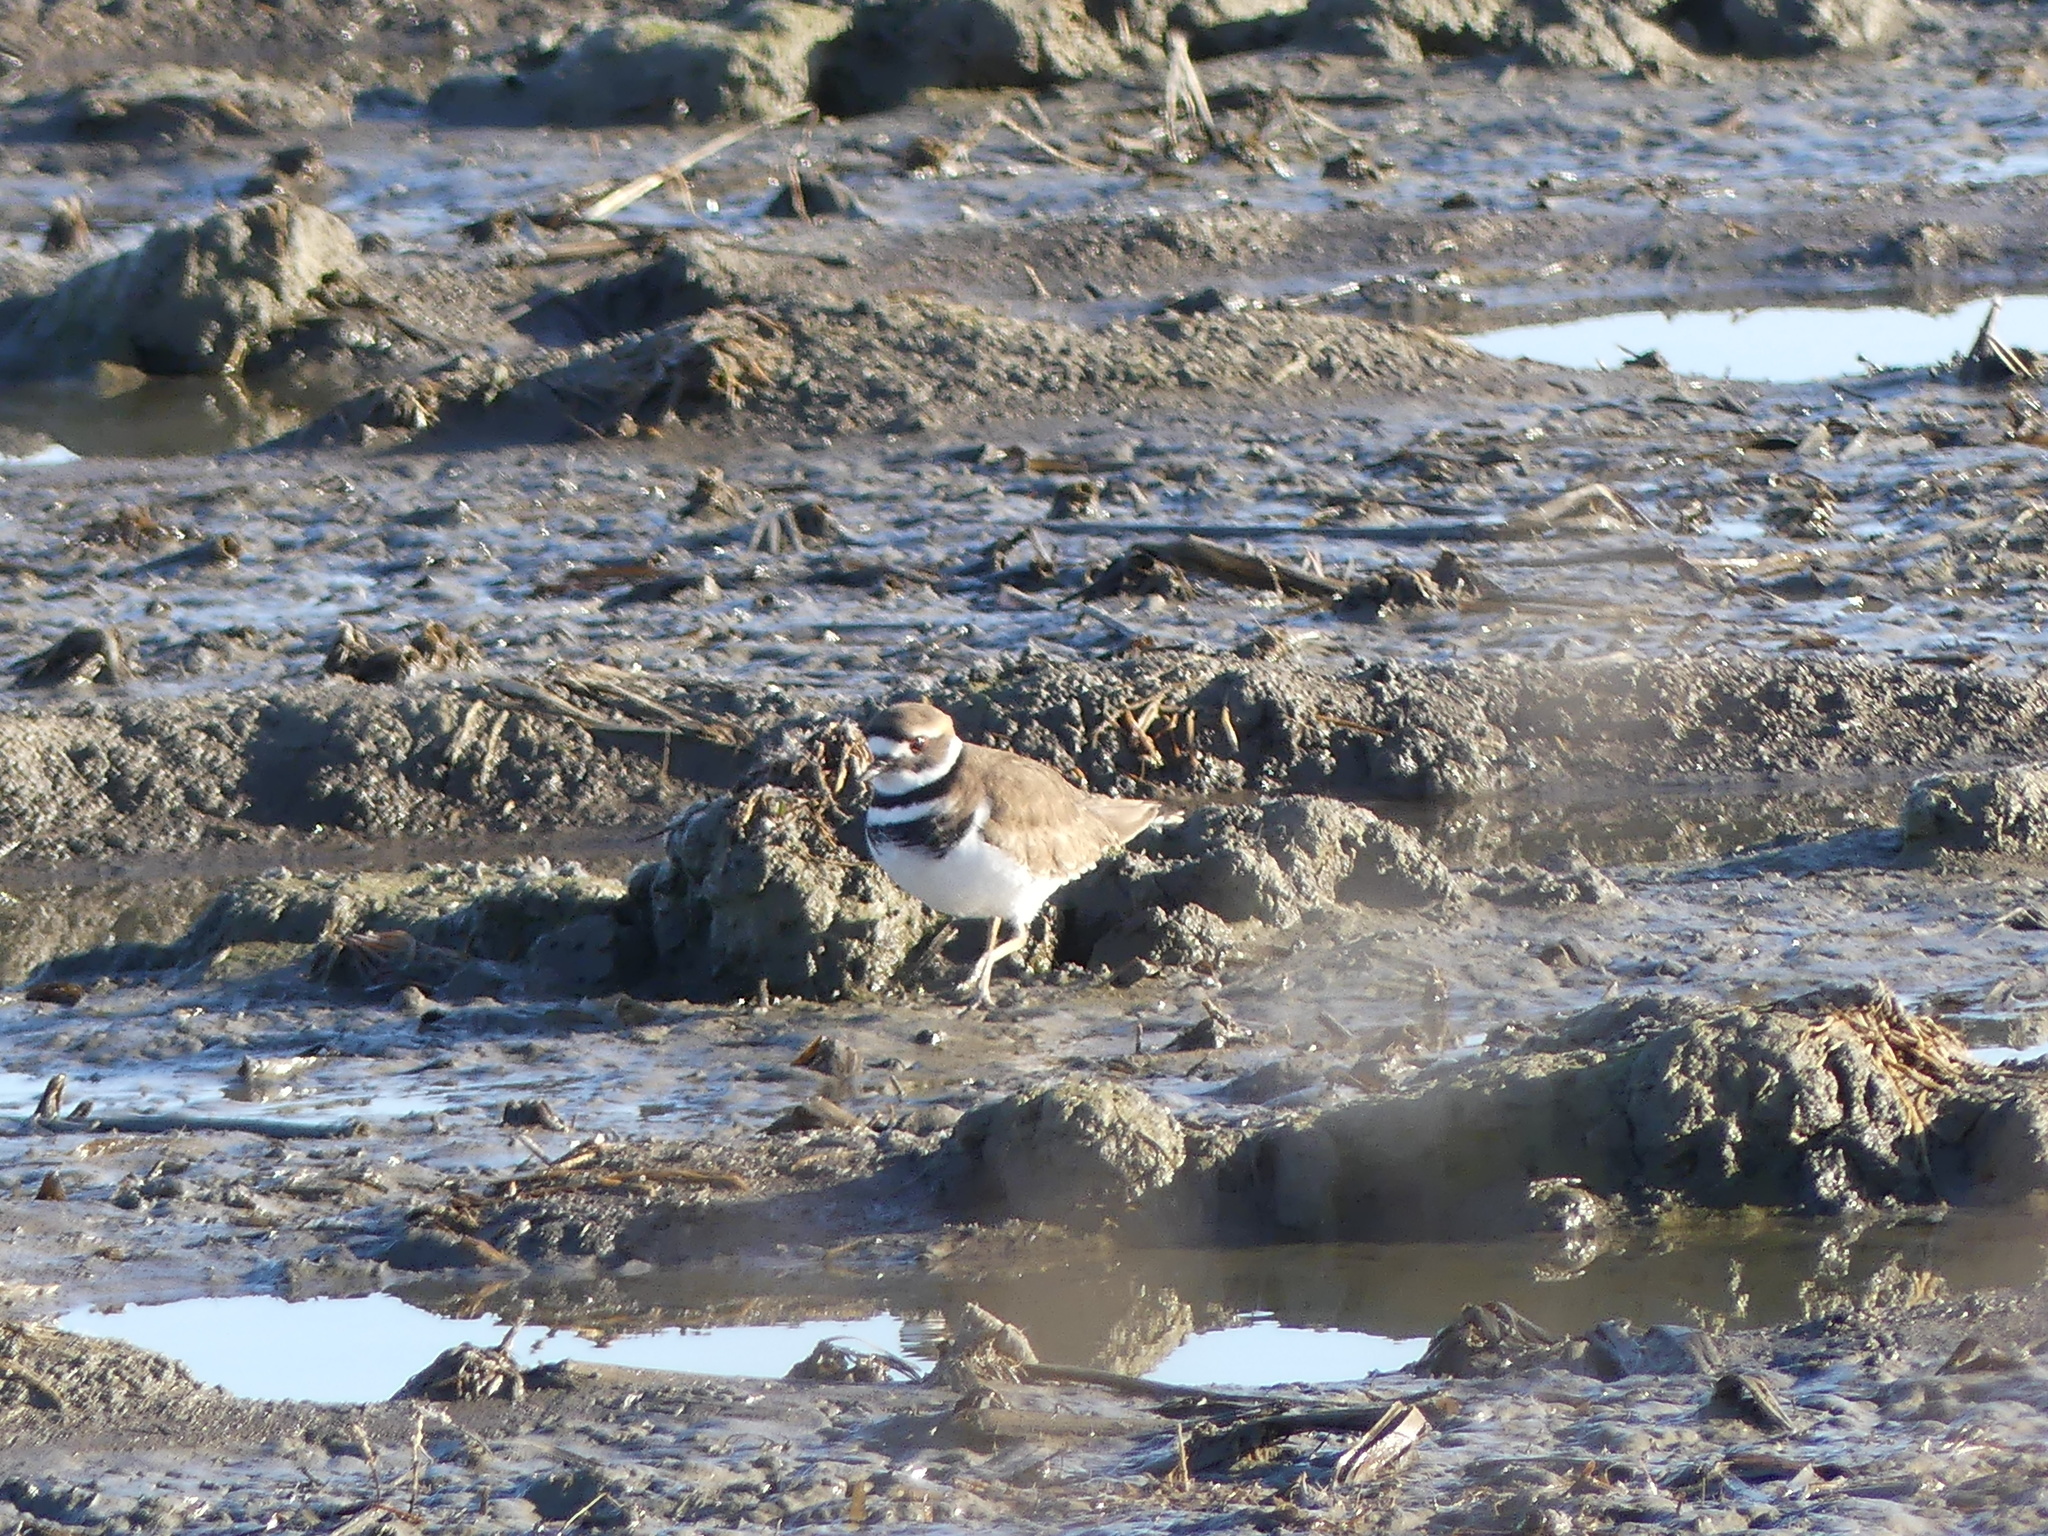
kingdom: Animalia
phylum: Chordata
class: Aves
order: Charadriiformes
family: Charadriidae
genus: Charadrius
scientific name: Charadrius vociferus
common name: Killdeer
